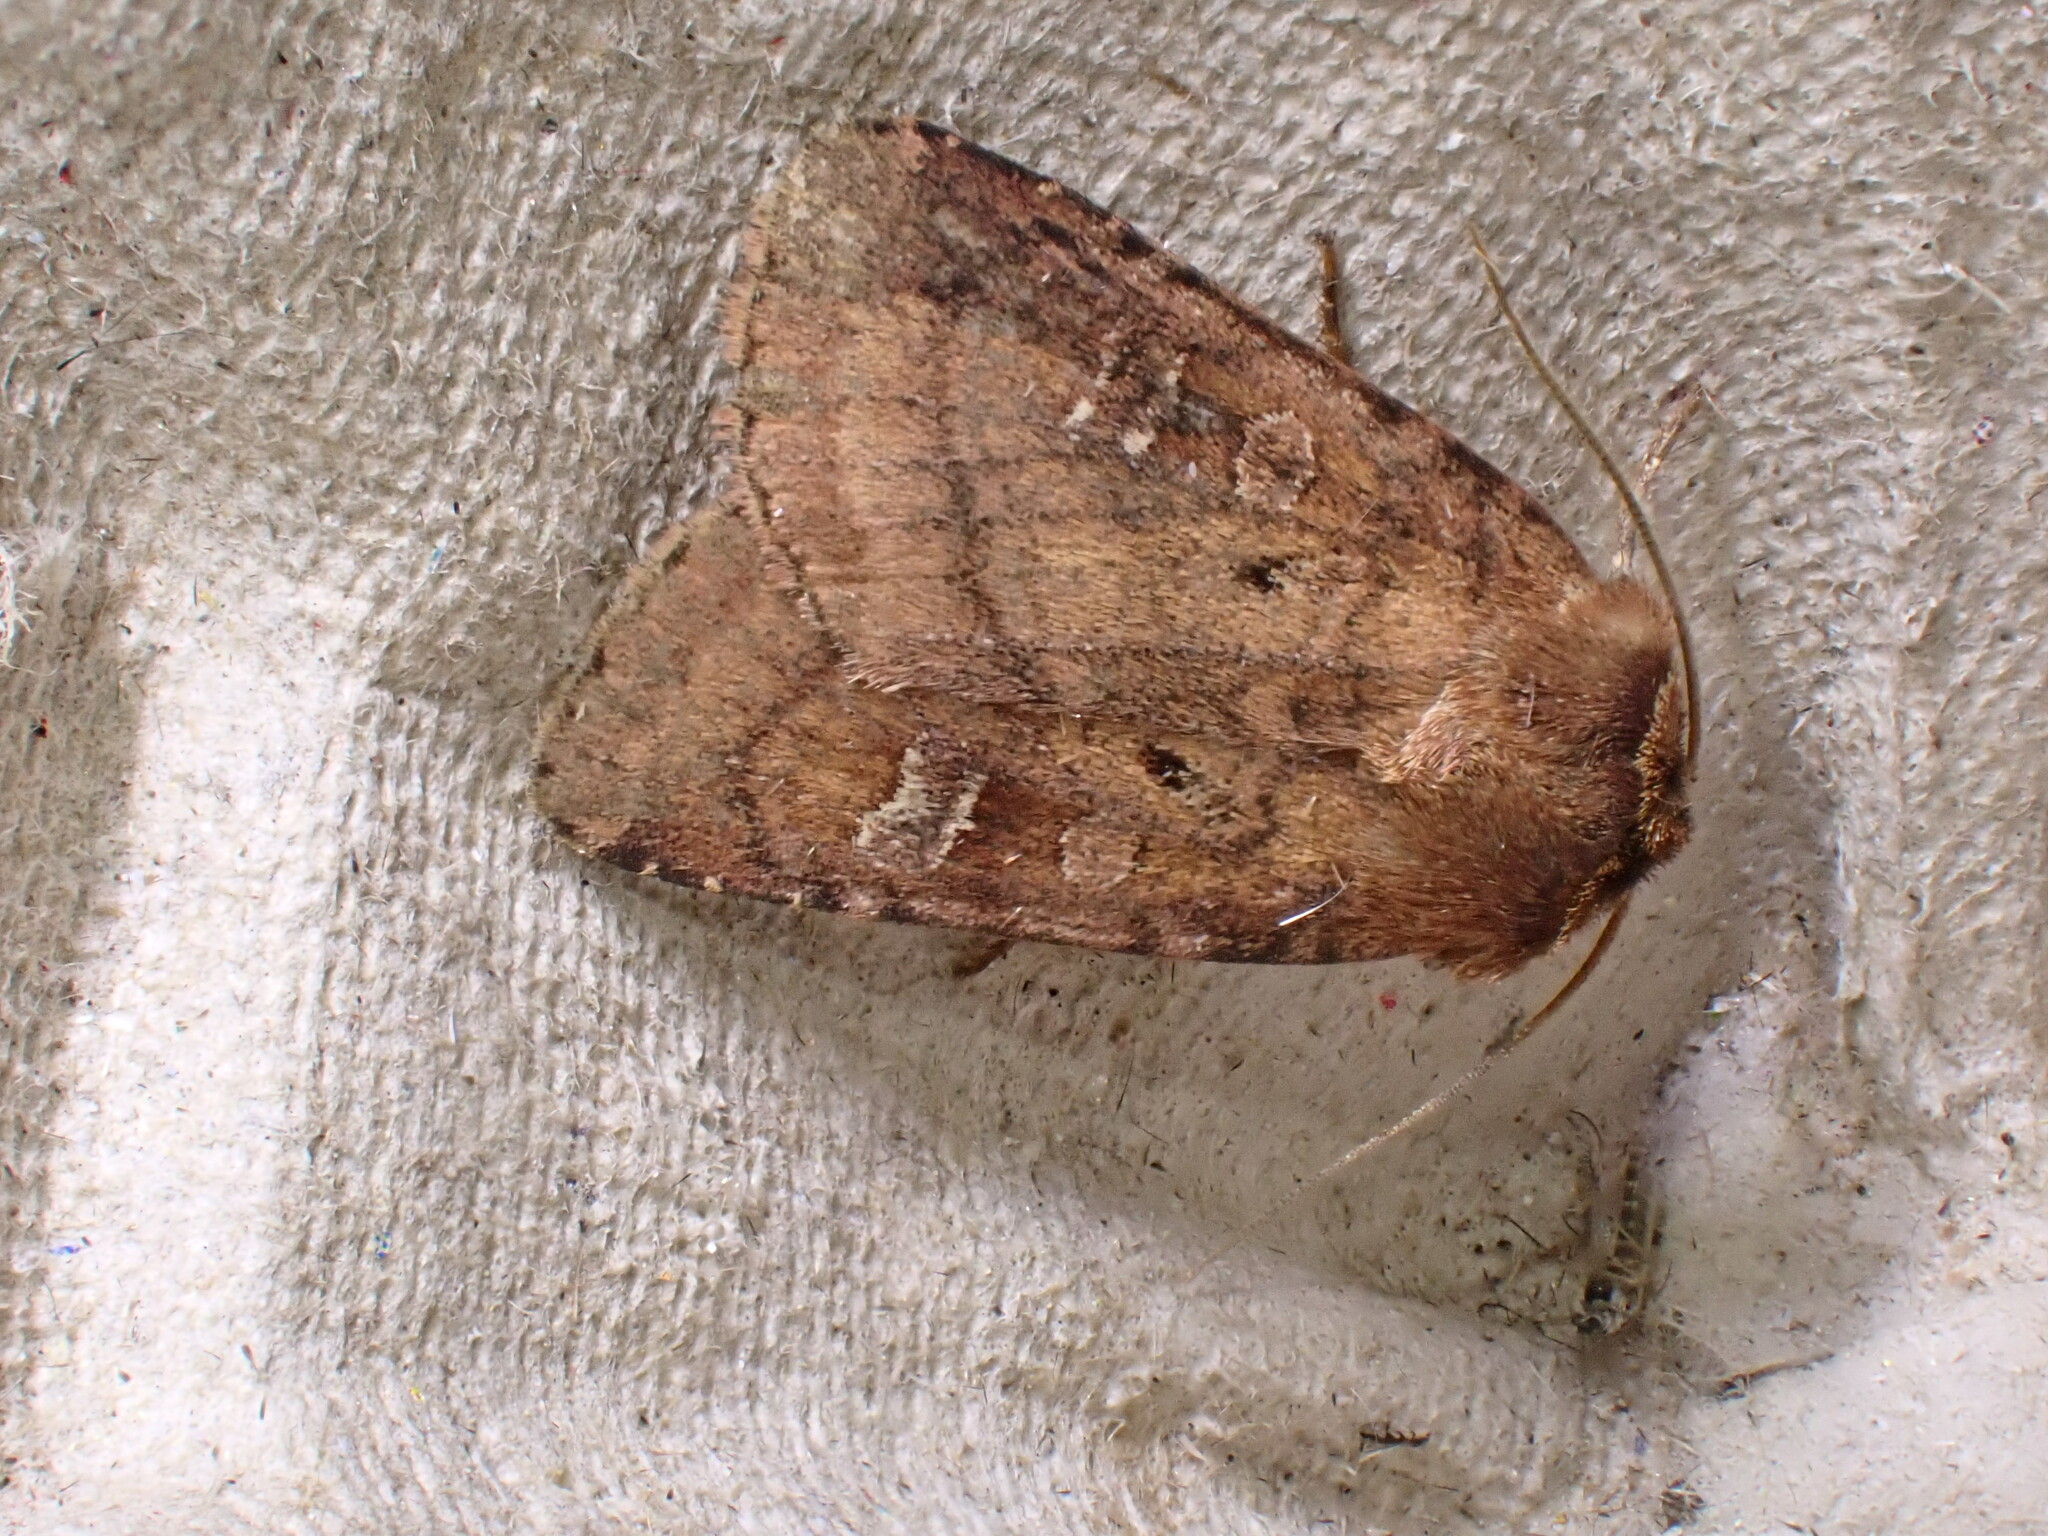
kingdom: Animalia
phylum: Arthropoda
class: Insecta
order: Lepidoptera
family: Noctuidae
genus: Diarsia
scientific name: Diarsia rubi
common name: Small square-spot
